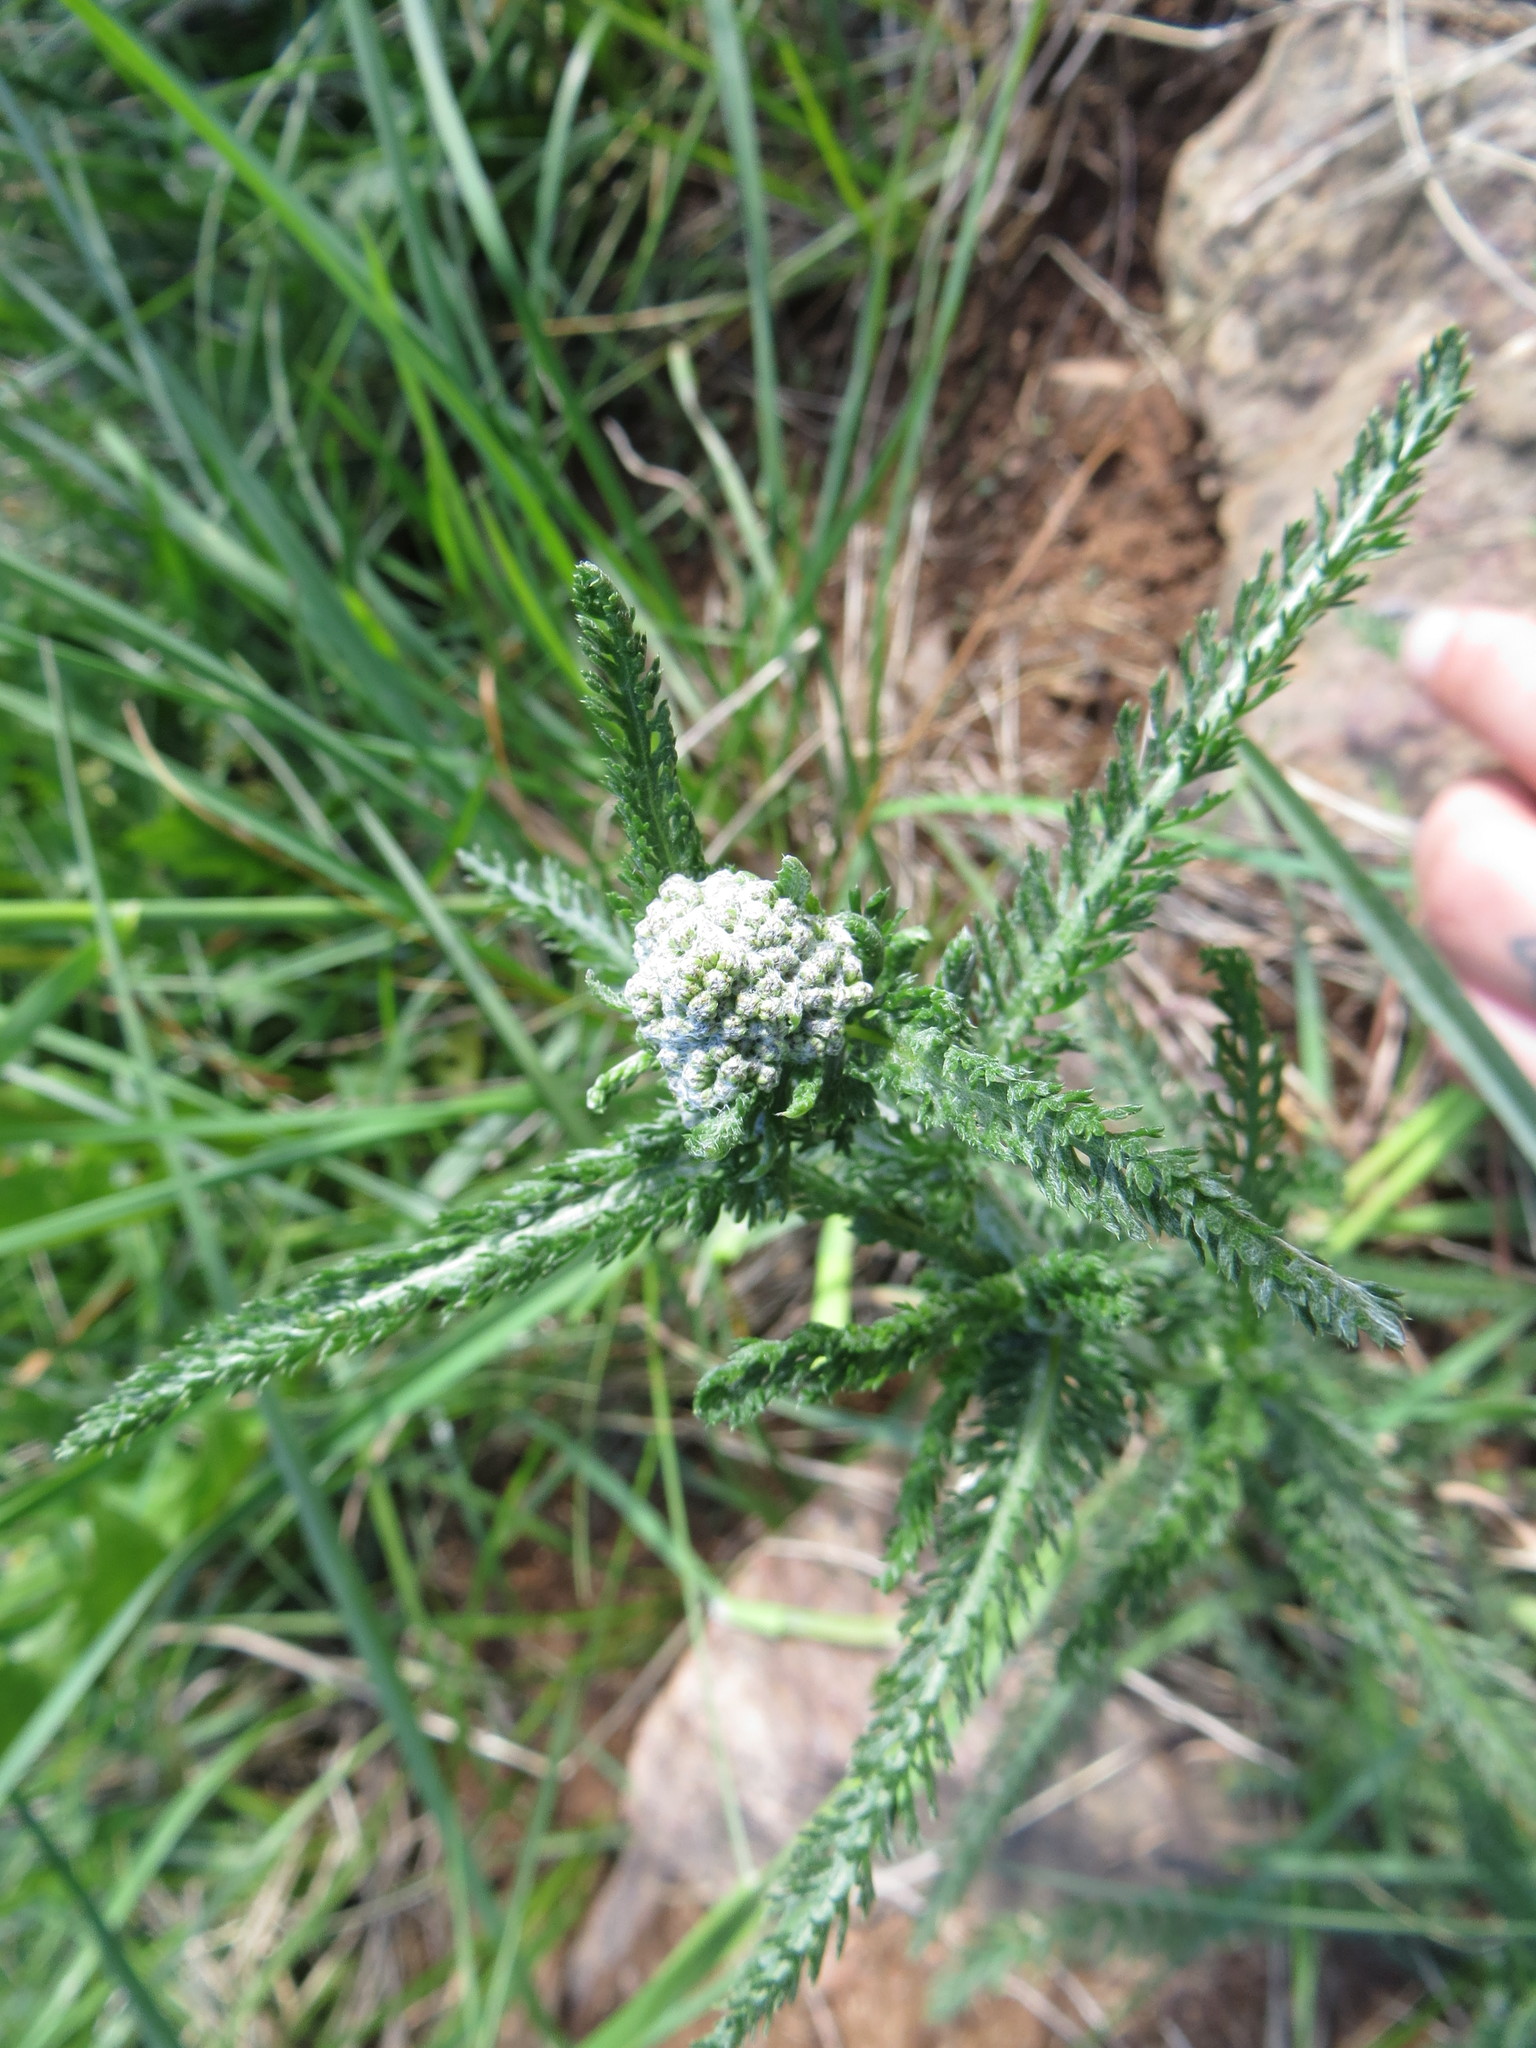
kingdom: Plantae
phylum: Tracheophyta
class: Magnoliopsida
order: Asterales
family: Asteraceae
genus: Achillea
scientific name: Achillea millefolium
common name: Yarrow
